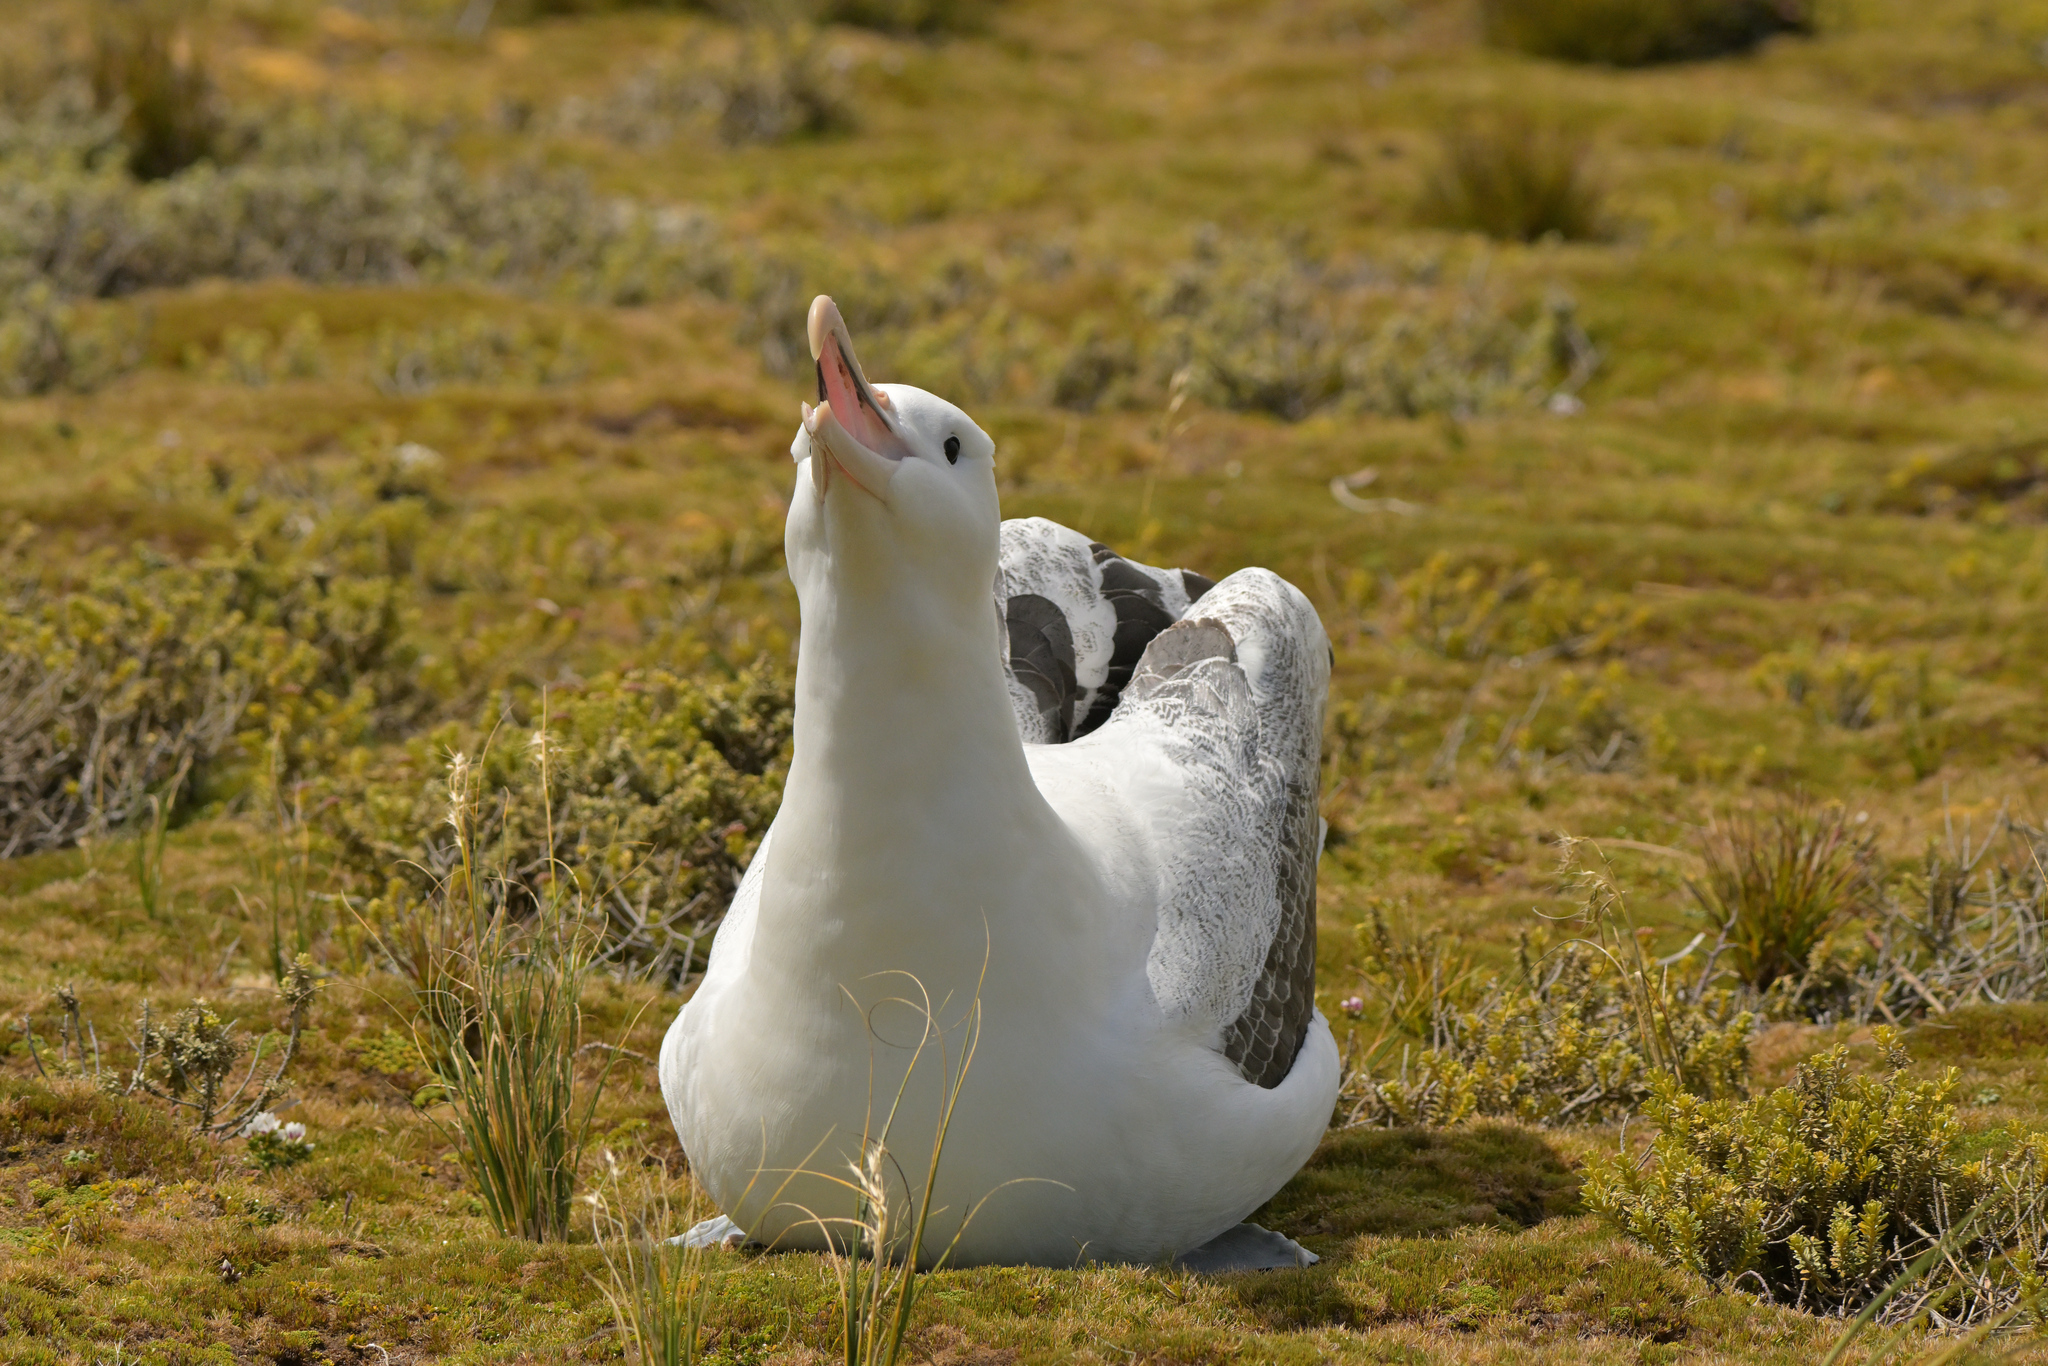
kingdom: Animalia
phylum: Chordata
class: Aves
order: Procellariiformes
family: Diomedeidae
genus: Diomedea
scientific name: Diomedea epomophora
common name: Southern royal albatross
